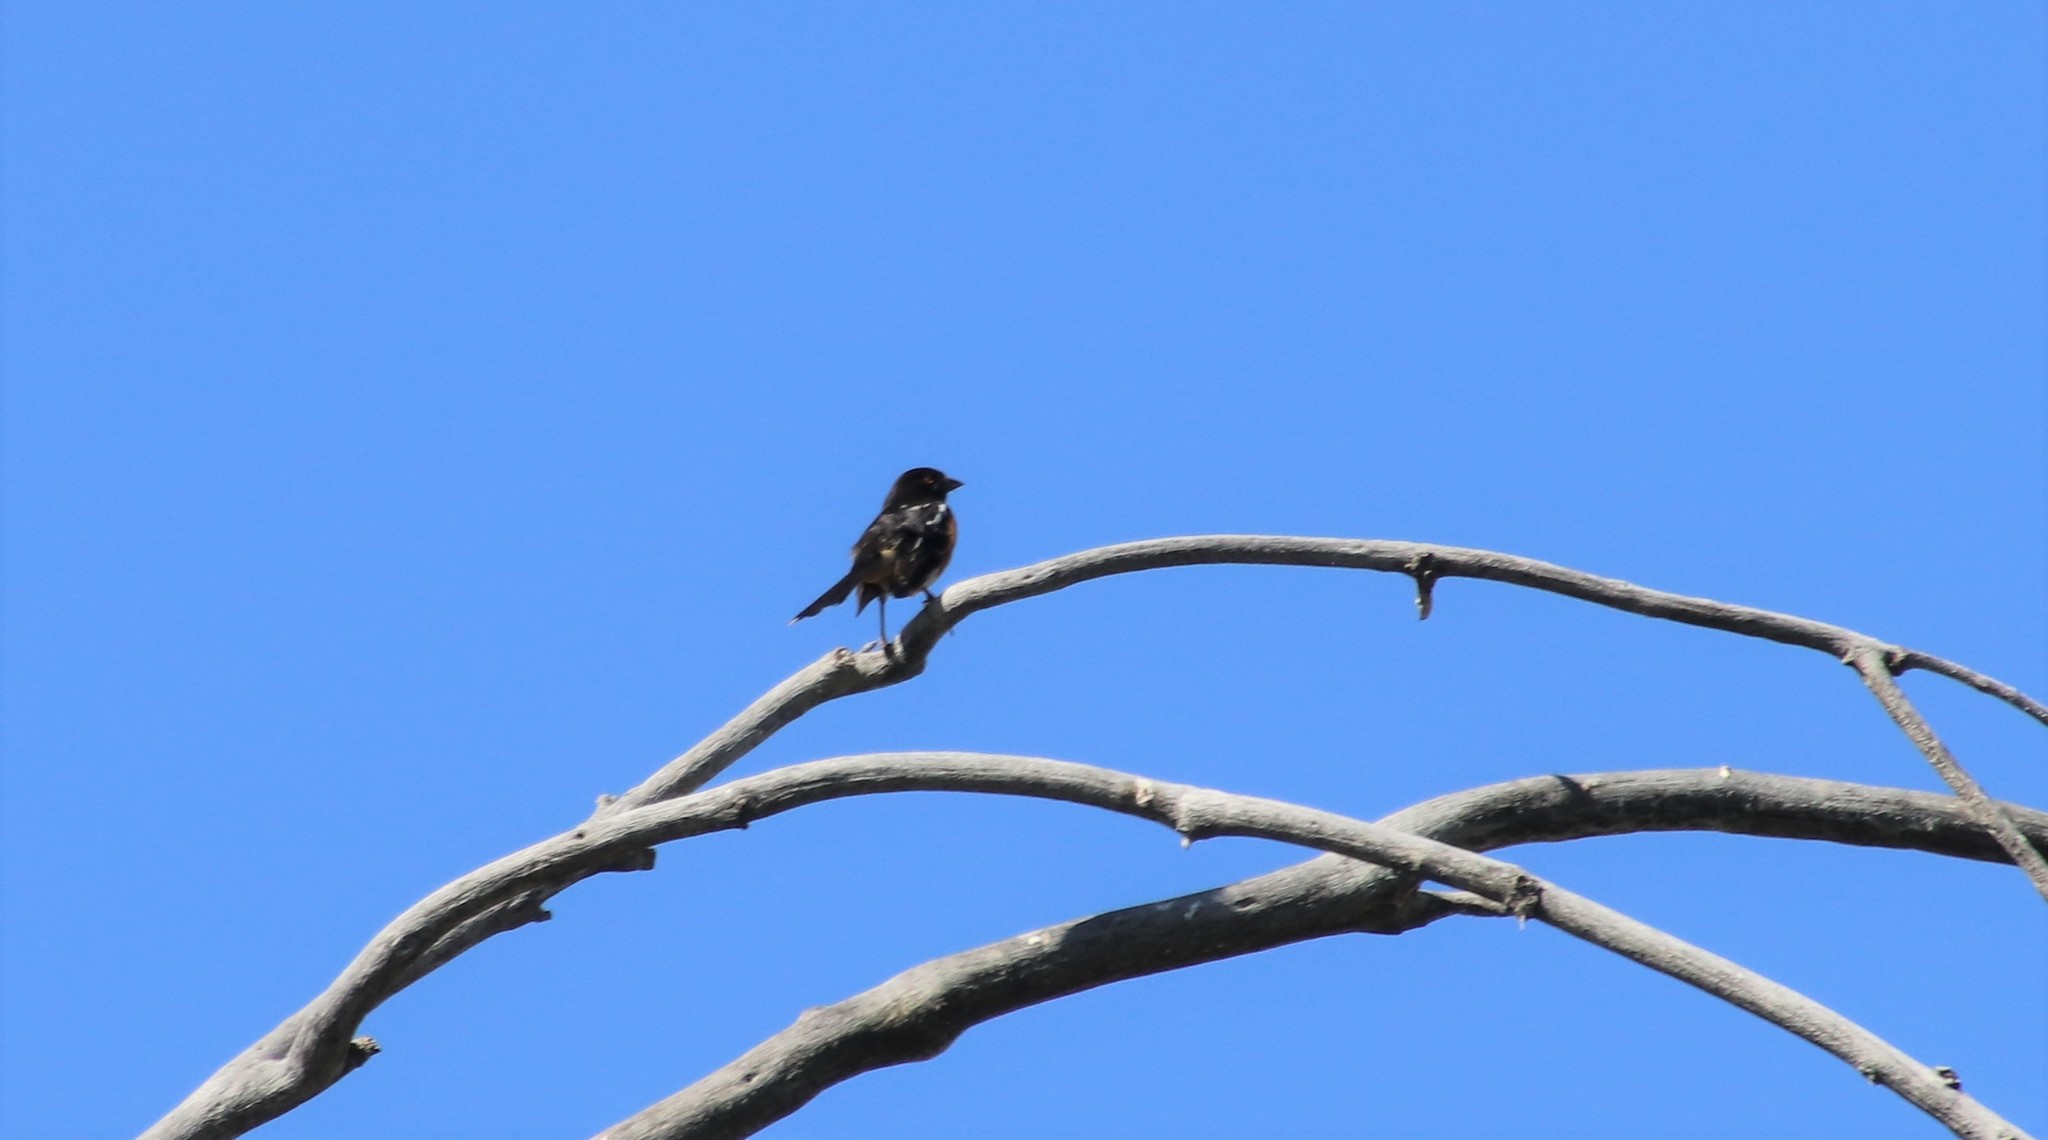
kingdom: Animalia
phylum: Chordata
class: Aves
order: Passeriformes
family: Passerellidae
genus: Pipilo
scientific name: Pipilo maculatus
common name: Spotted towhee
